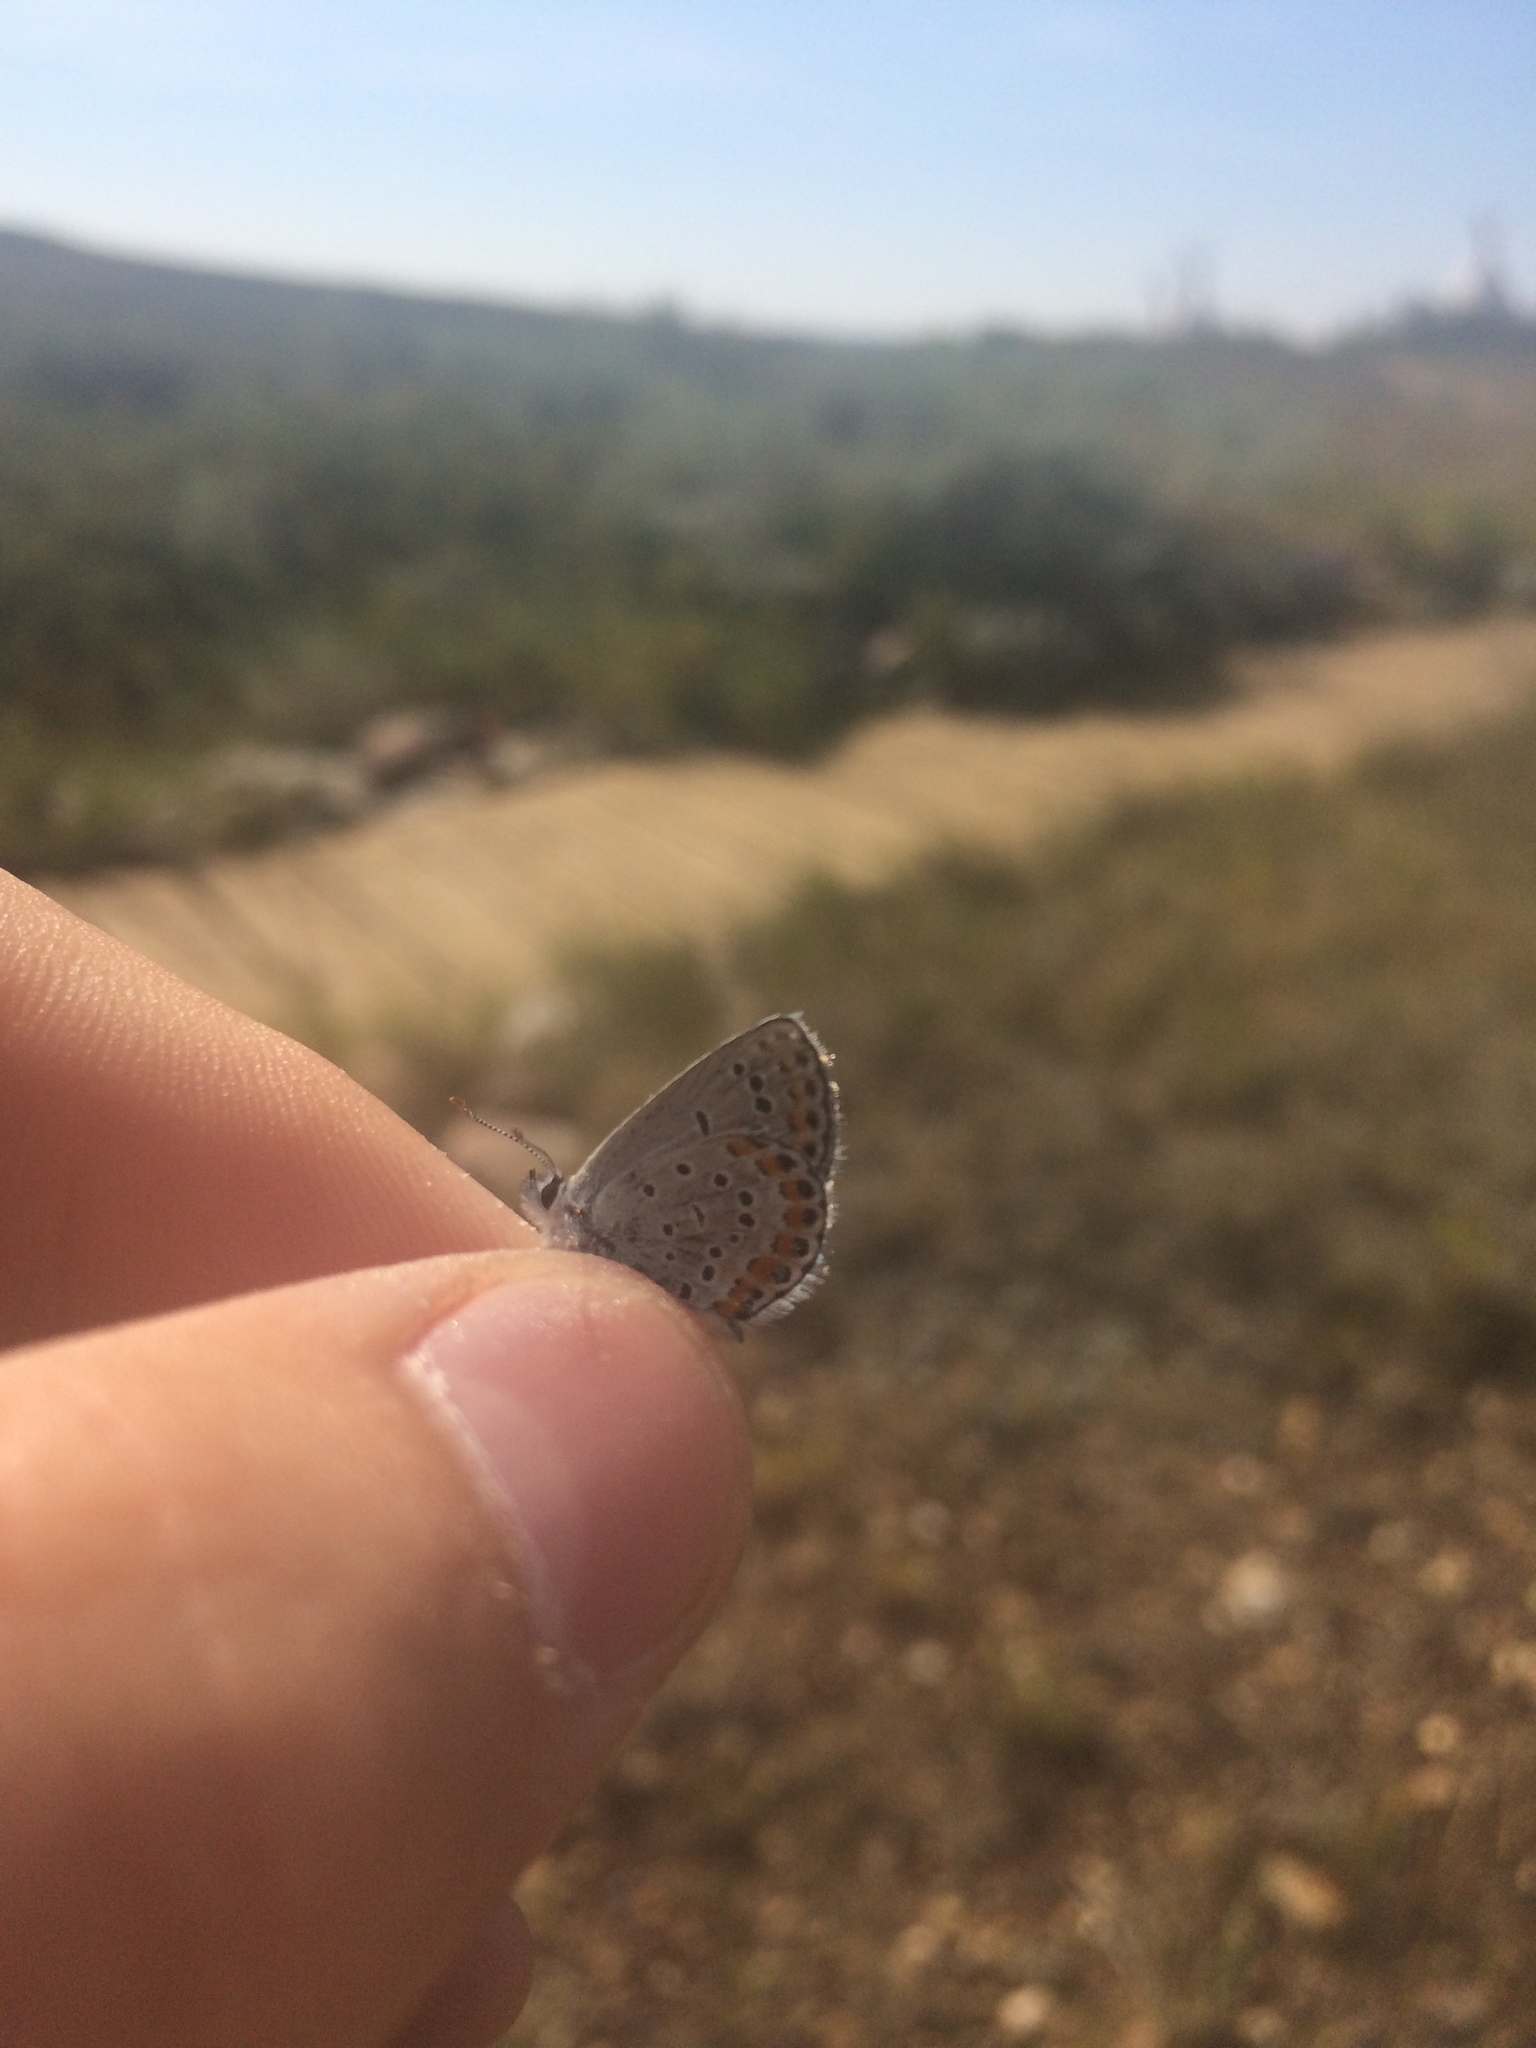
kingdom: Animalia
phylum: Arthropoda
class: Insecta
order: Lepidoptera
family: Lycaenidae
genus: Lycaeides
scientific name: Lycaeides melissa
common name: Melissa blue
